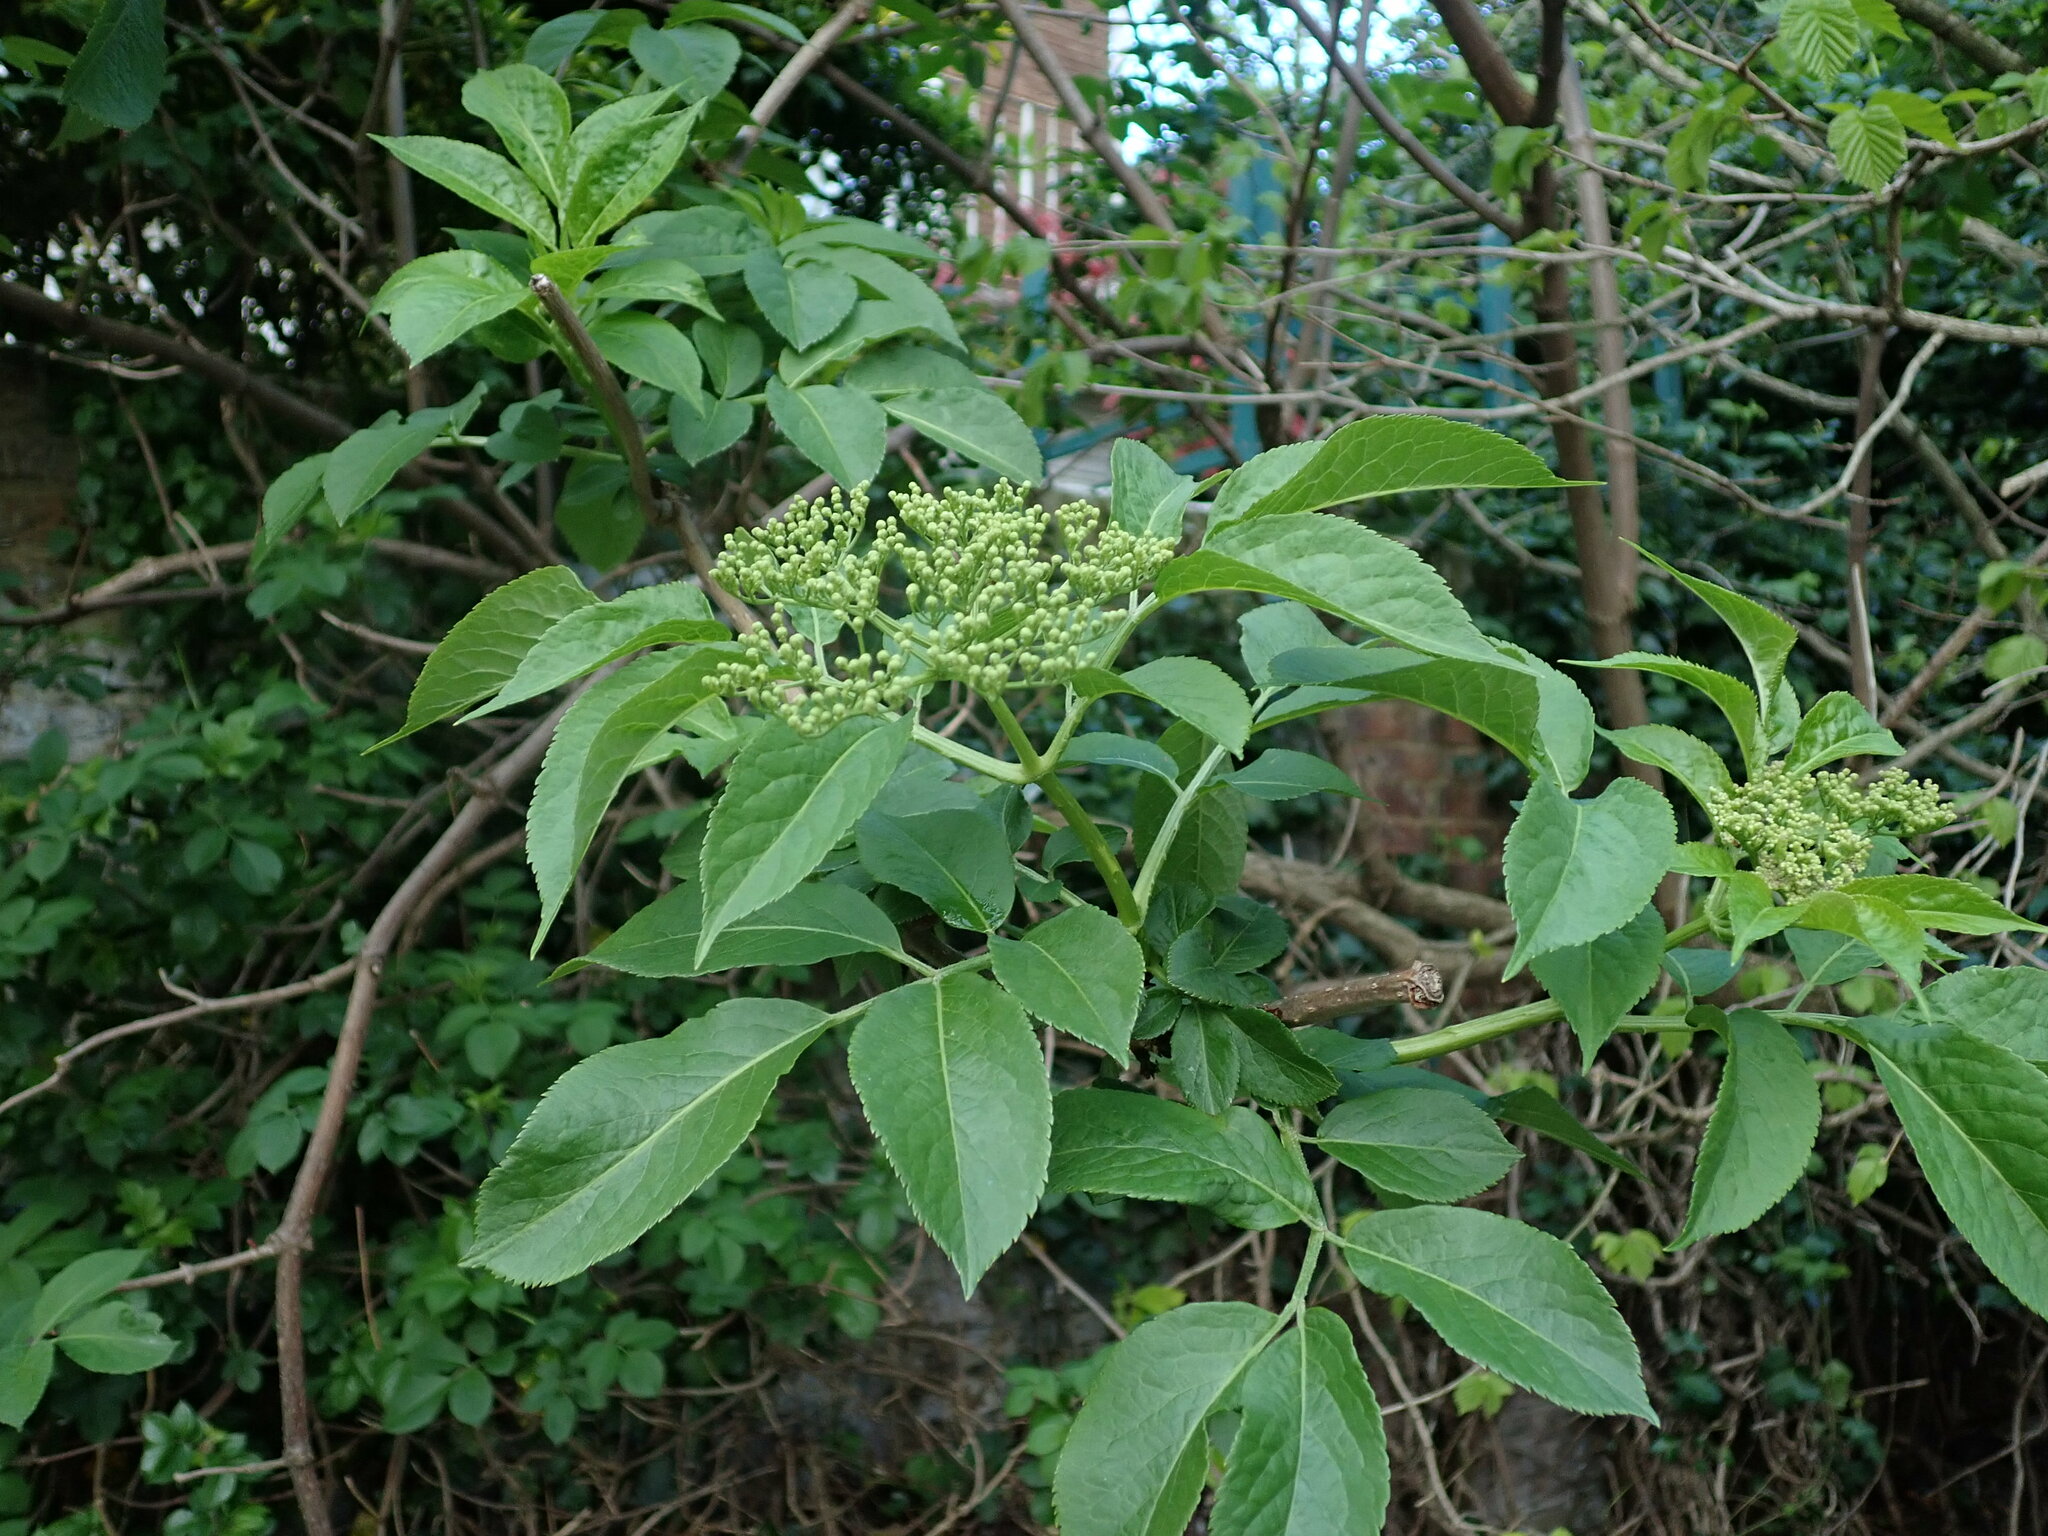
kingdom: Plantae
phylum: Tracheophyta
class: Magnoliopsida
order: Dipsacales
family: Viburnaceae
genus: Sambucus
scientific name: Sambucus nigra
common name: Elder
